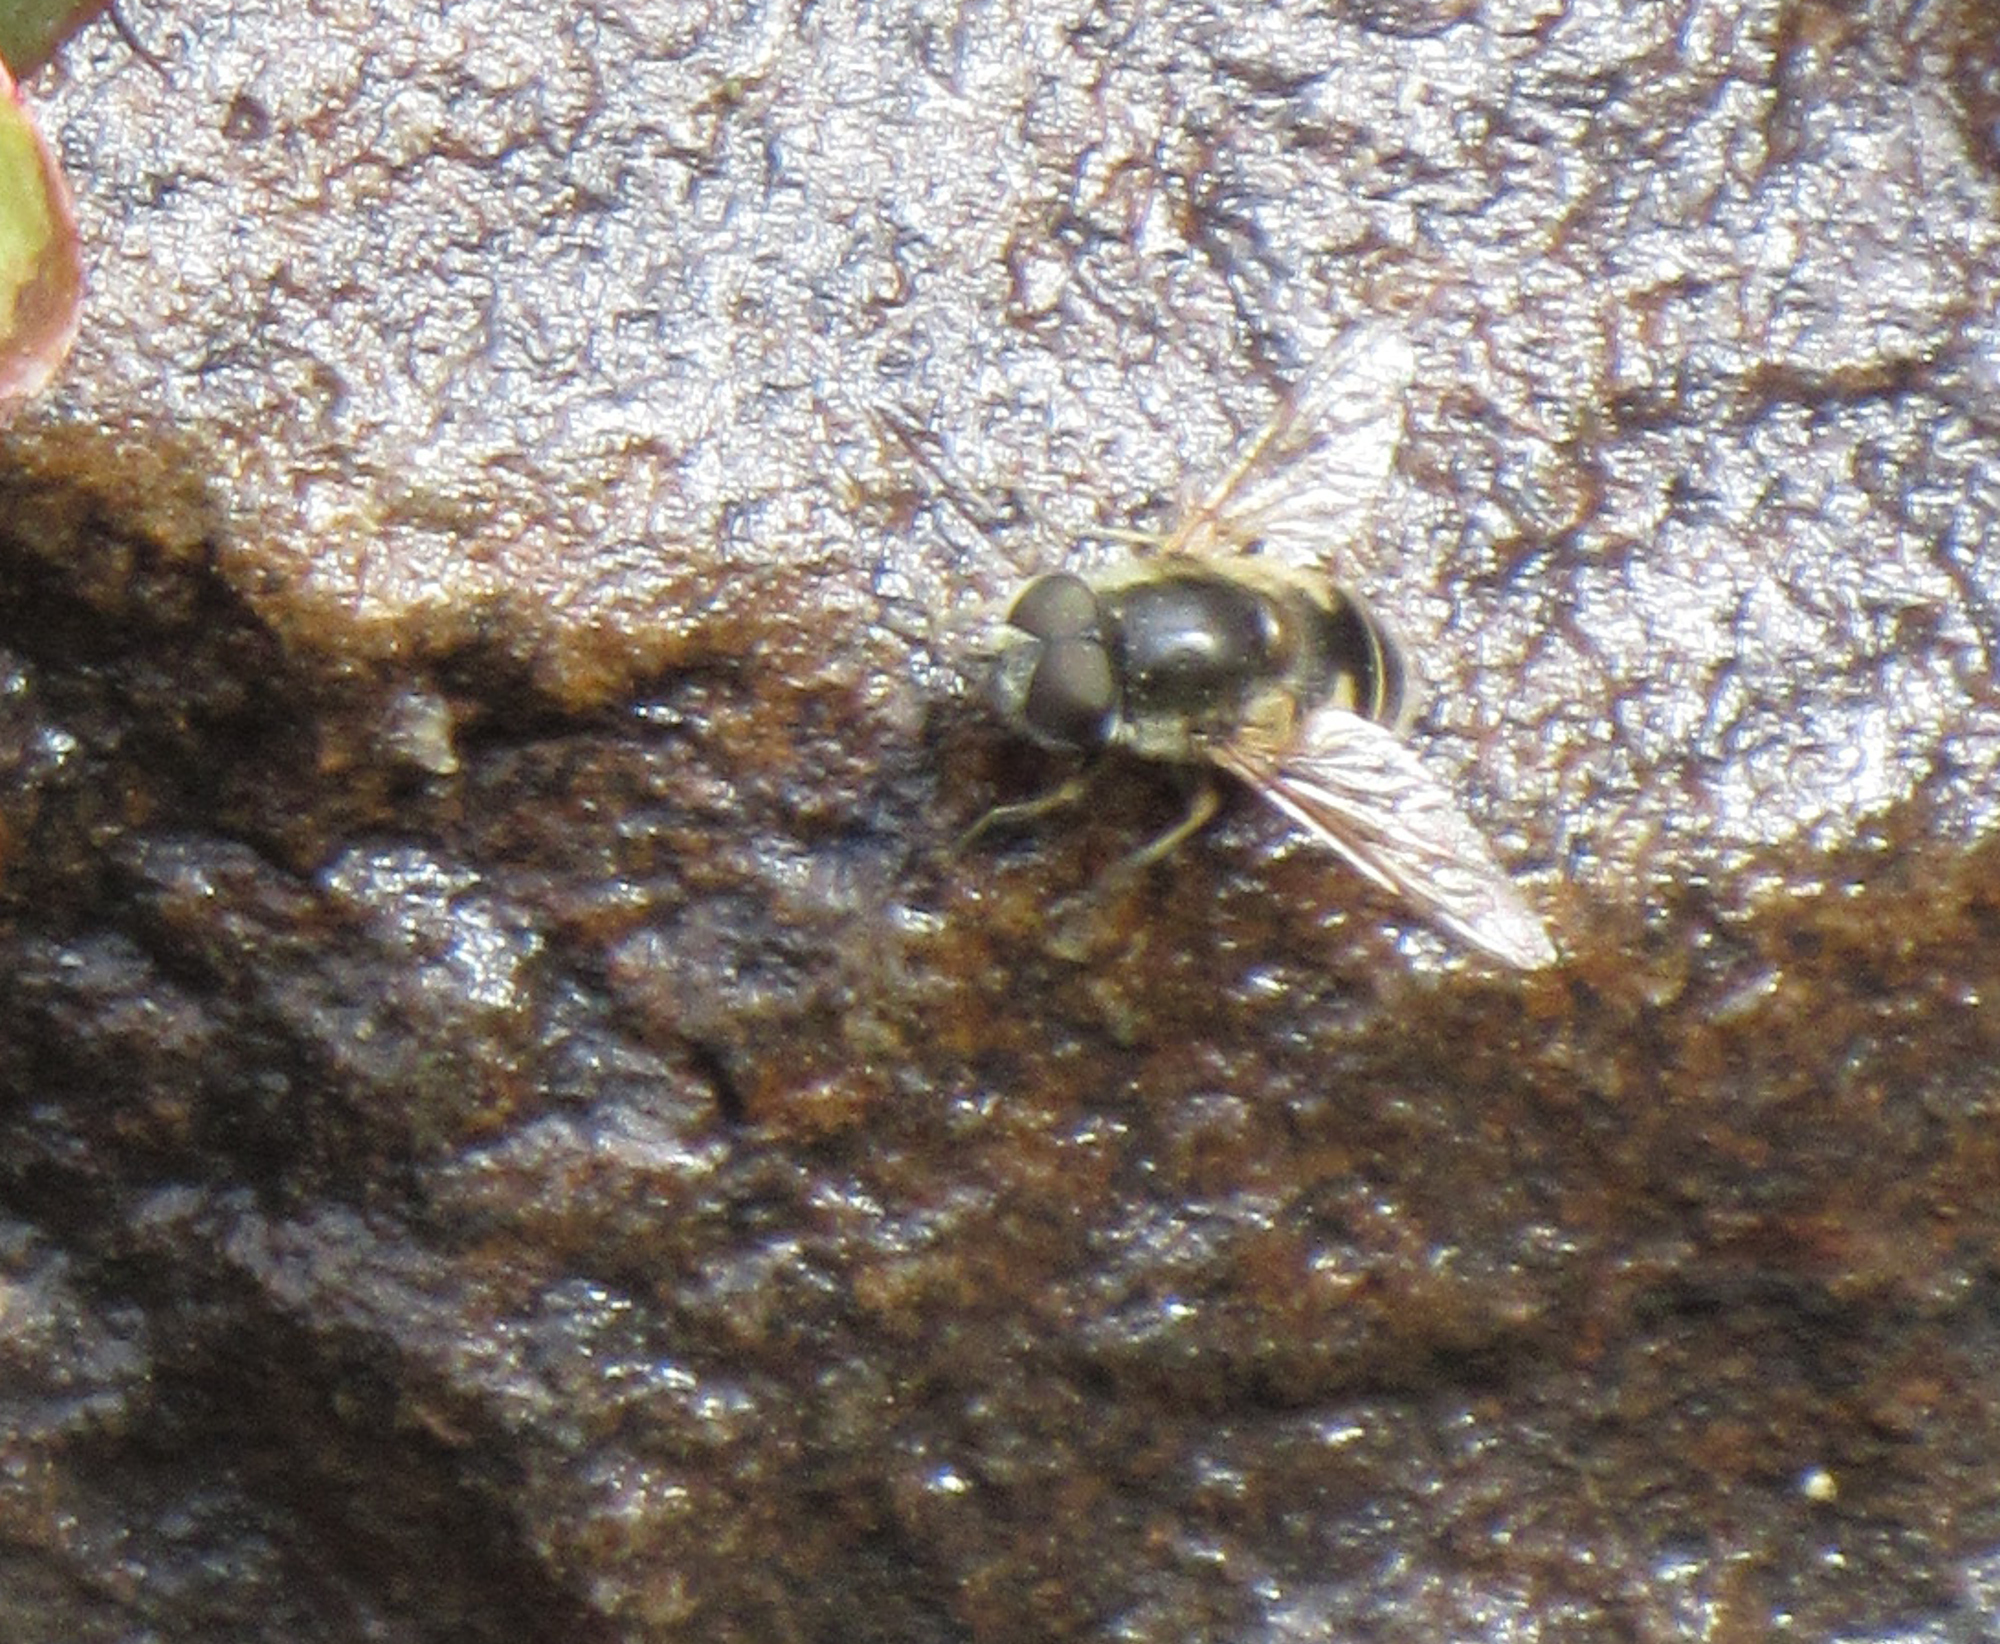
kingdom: Animalia
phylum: Arthropoda
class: Insecta
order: Diptera
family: Syrphidae
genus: Eoseristalis
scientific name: Eoseristalis
